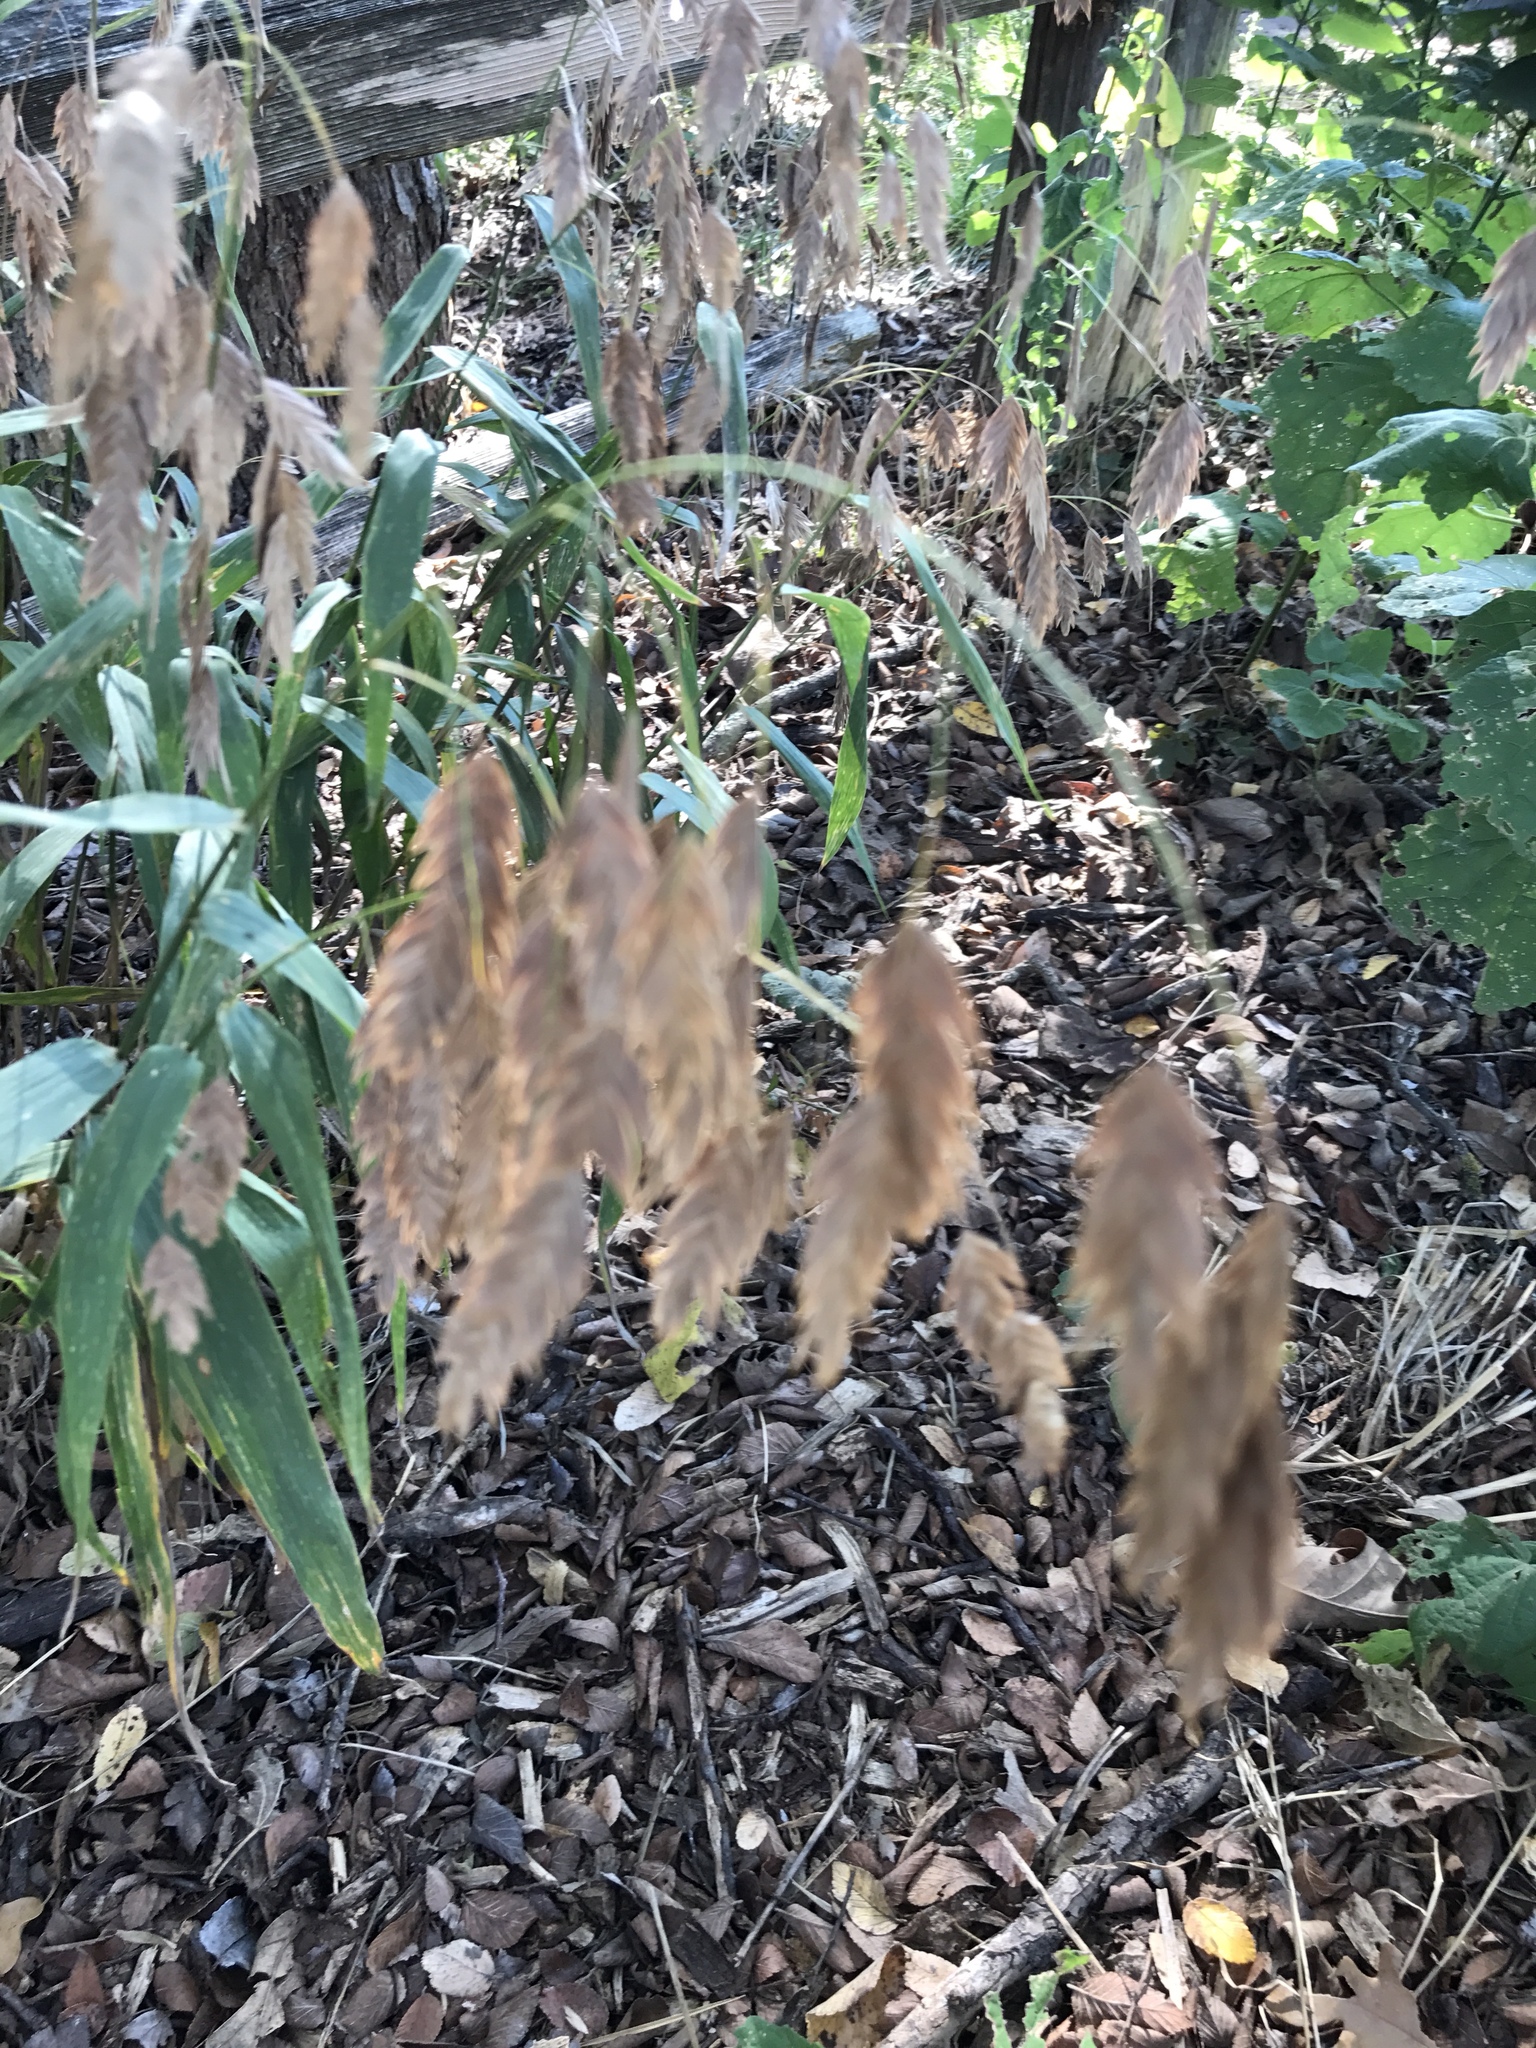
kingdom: Plantae
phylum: Tracheophyta
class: Liliopsida
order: Poales
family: Poaceae
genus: Chasmanthium
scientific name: Chasmanthium latifolium
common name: Broad-leaved chasmanthium
